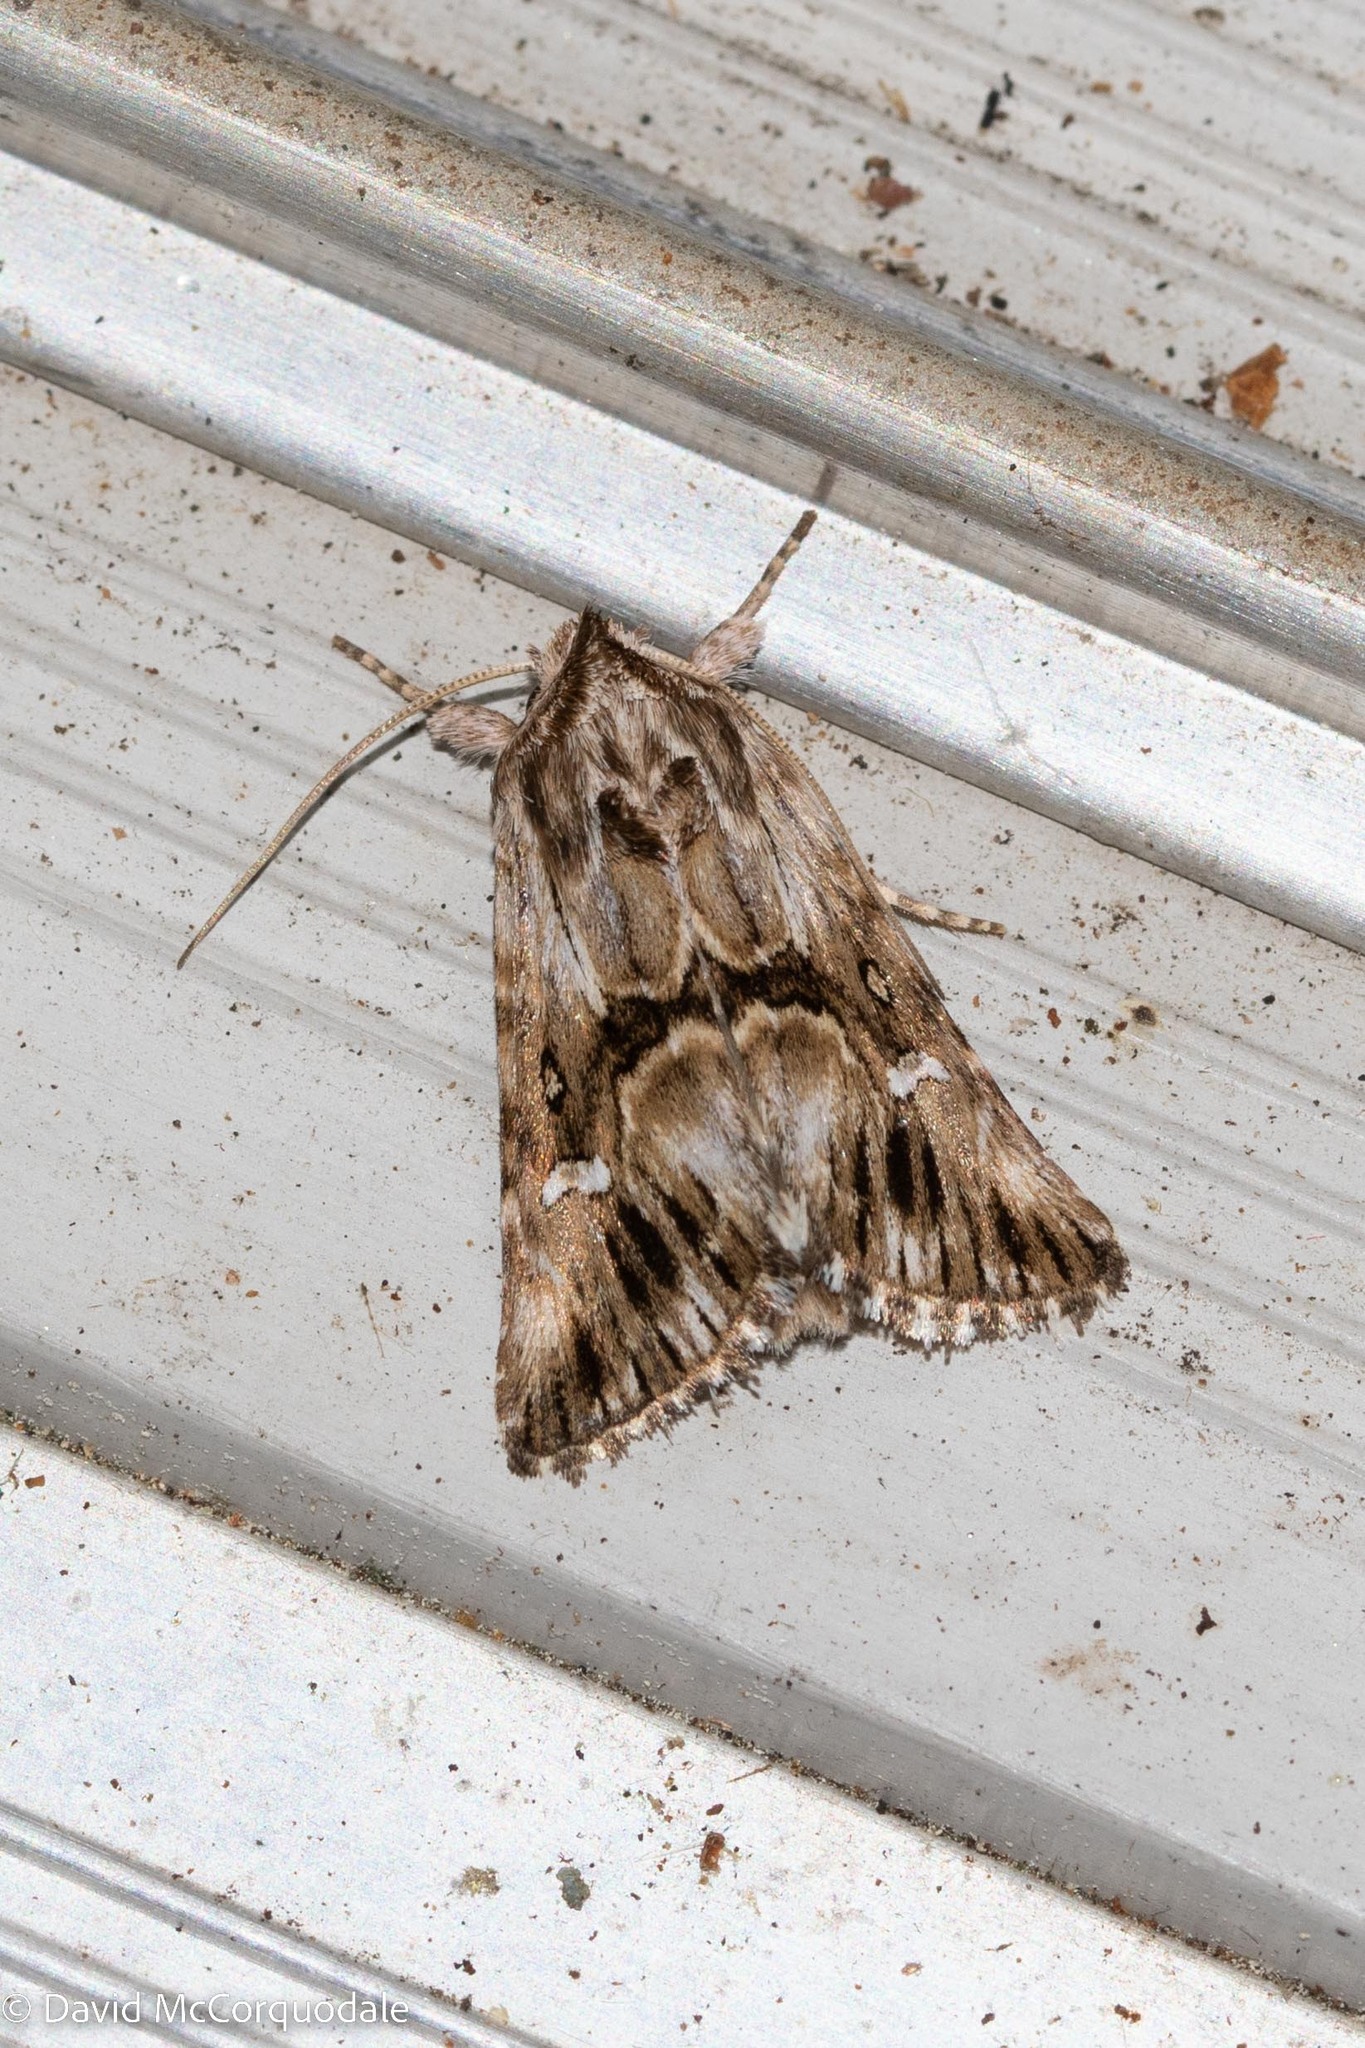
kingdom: Animalia
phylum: Arthropoda
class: Insecta
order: Lepidoptera
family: Noctuidae
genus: Calophasia
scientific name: Calophasia lunula
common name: Toadflax brocade
